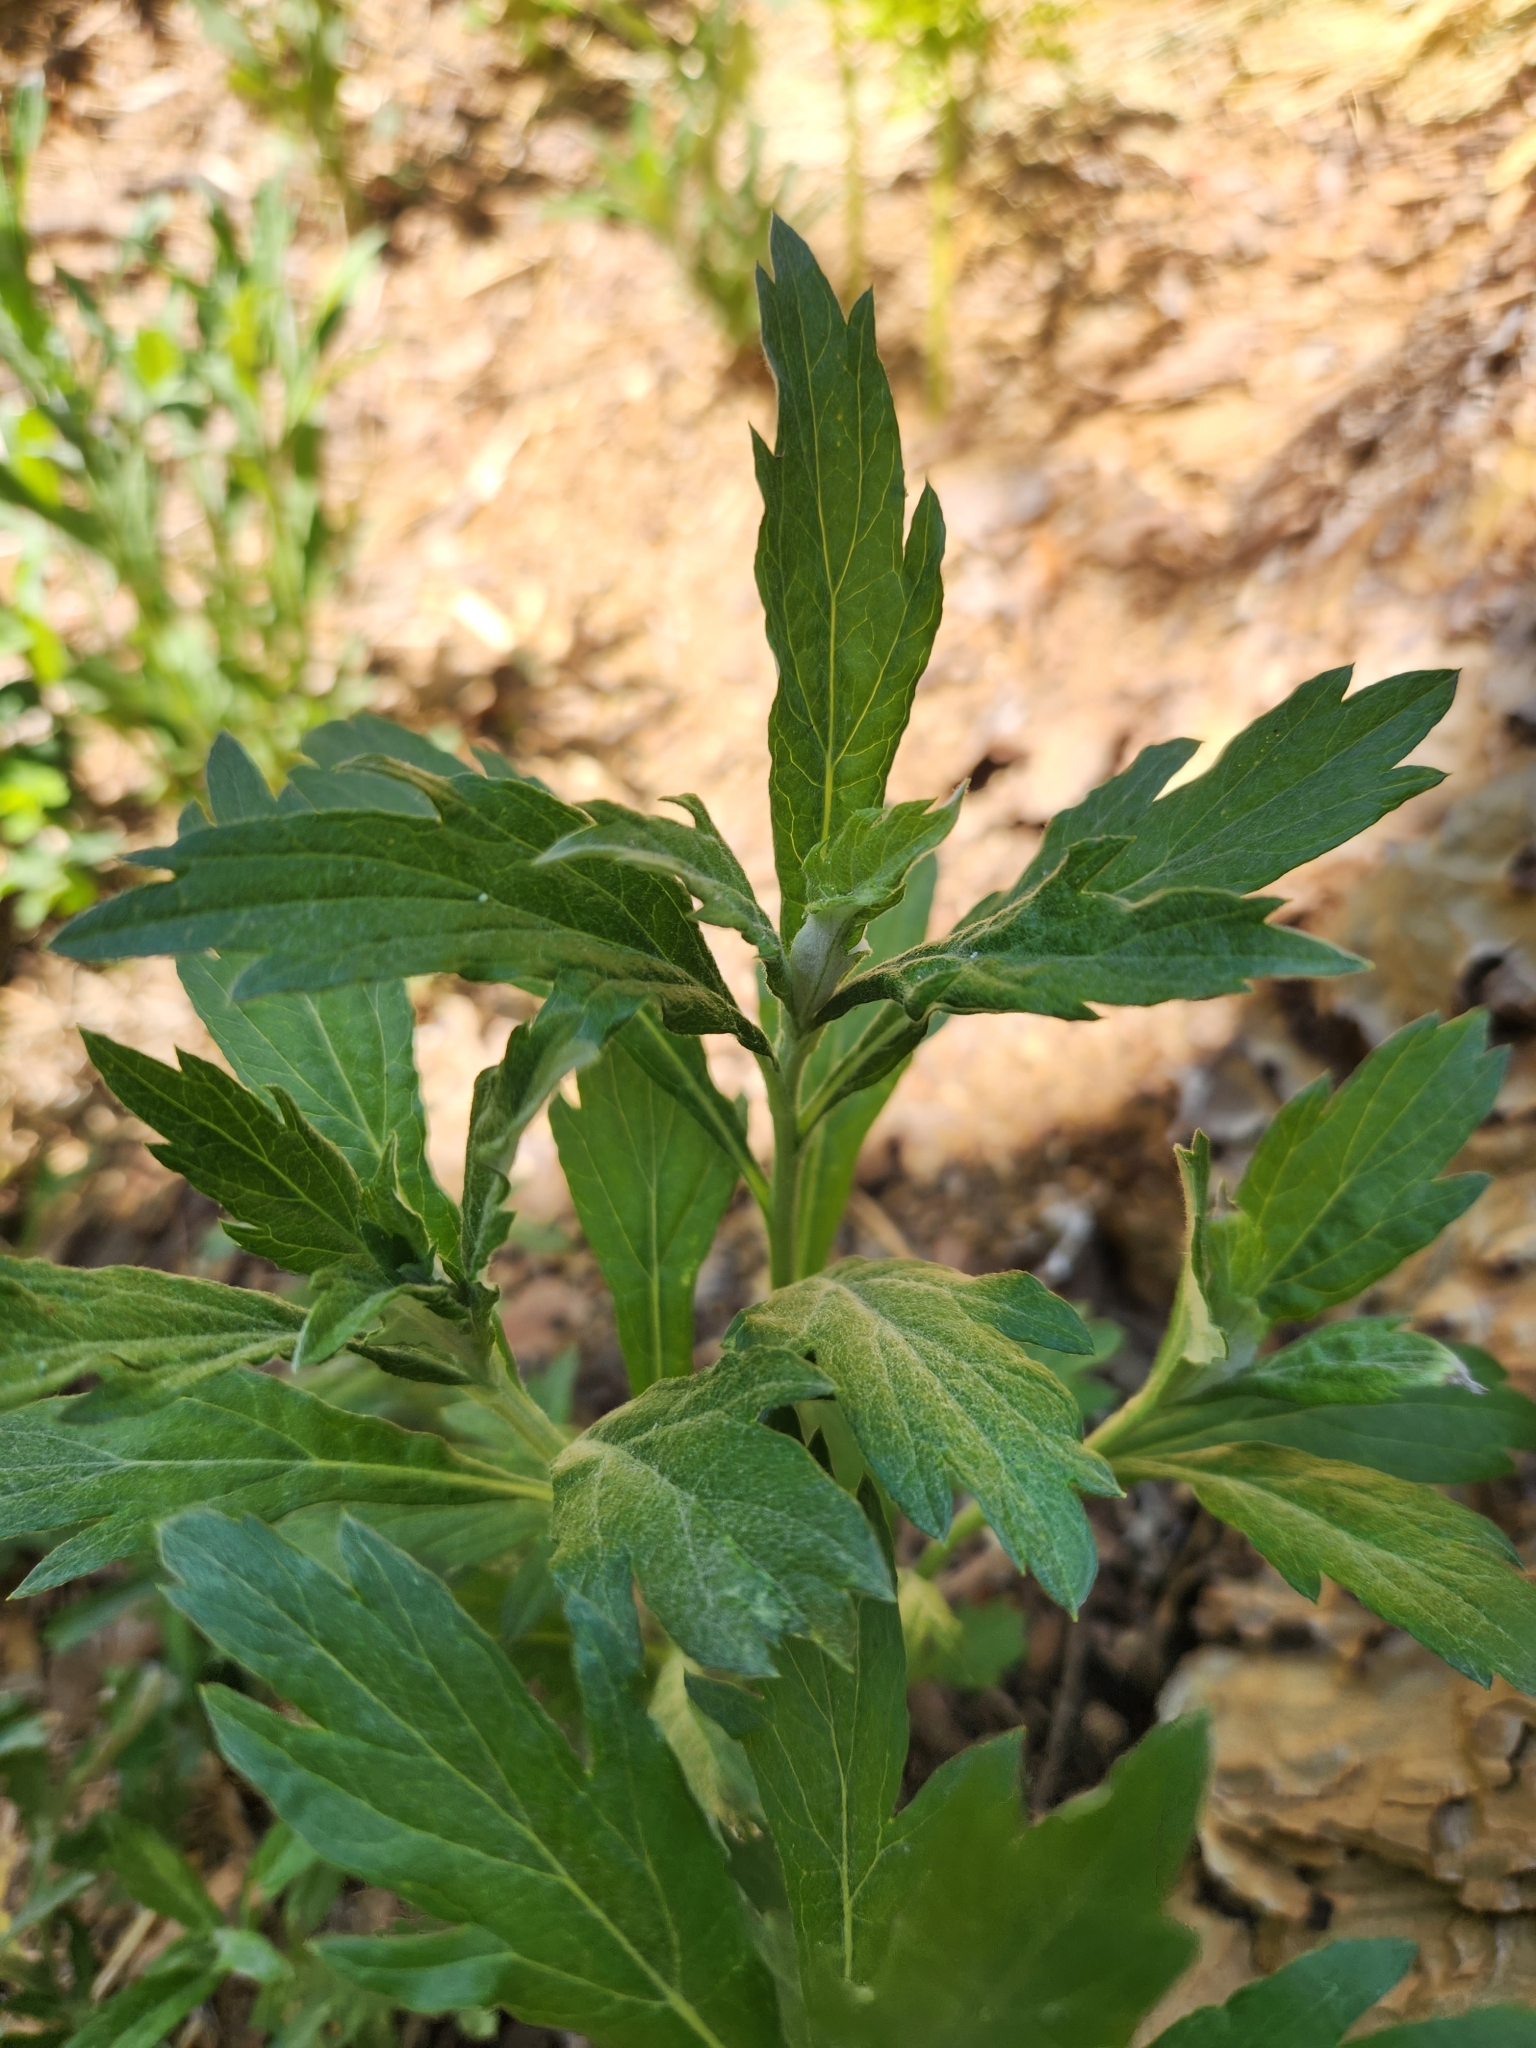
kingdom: Plantae
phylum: Tracheophyta
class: Magnoliopsida
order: Asterales
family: Asteraceae
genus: Artemisia
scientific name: Artemisia douglasiana
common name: Northwest mugwort
